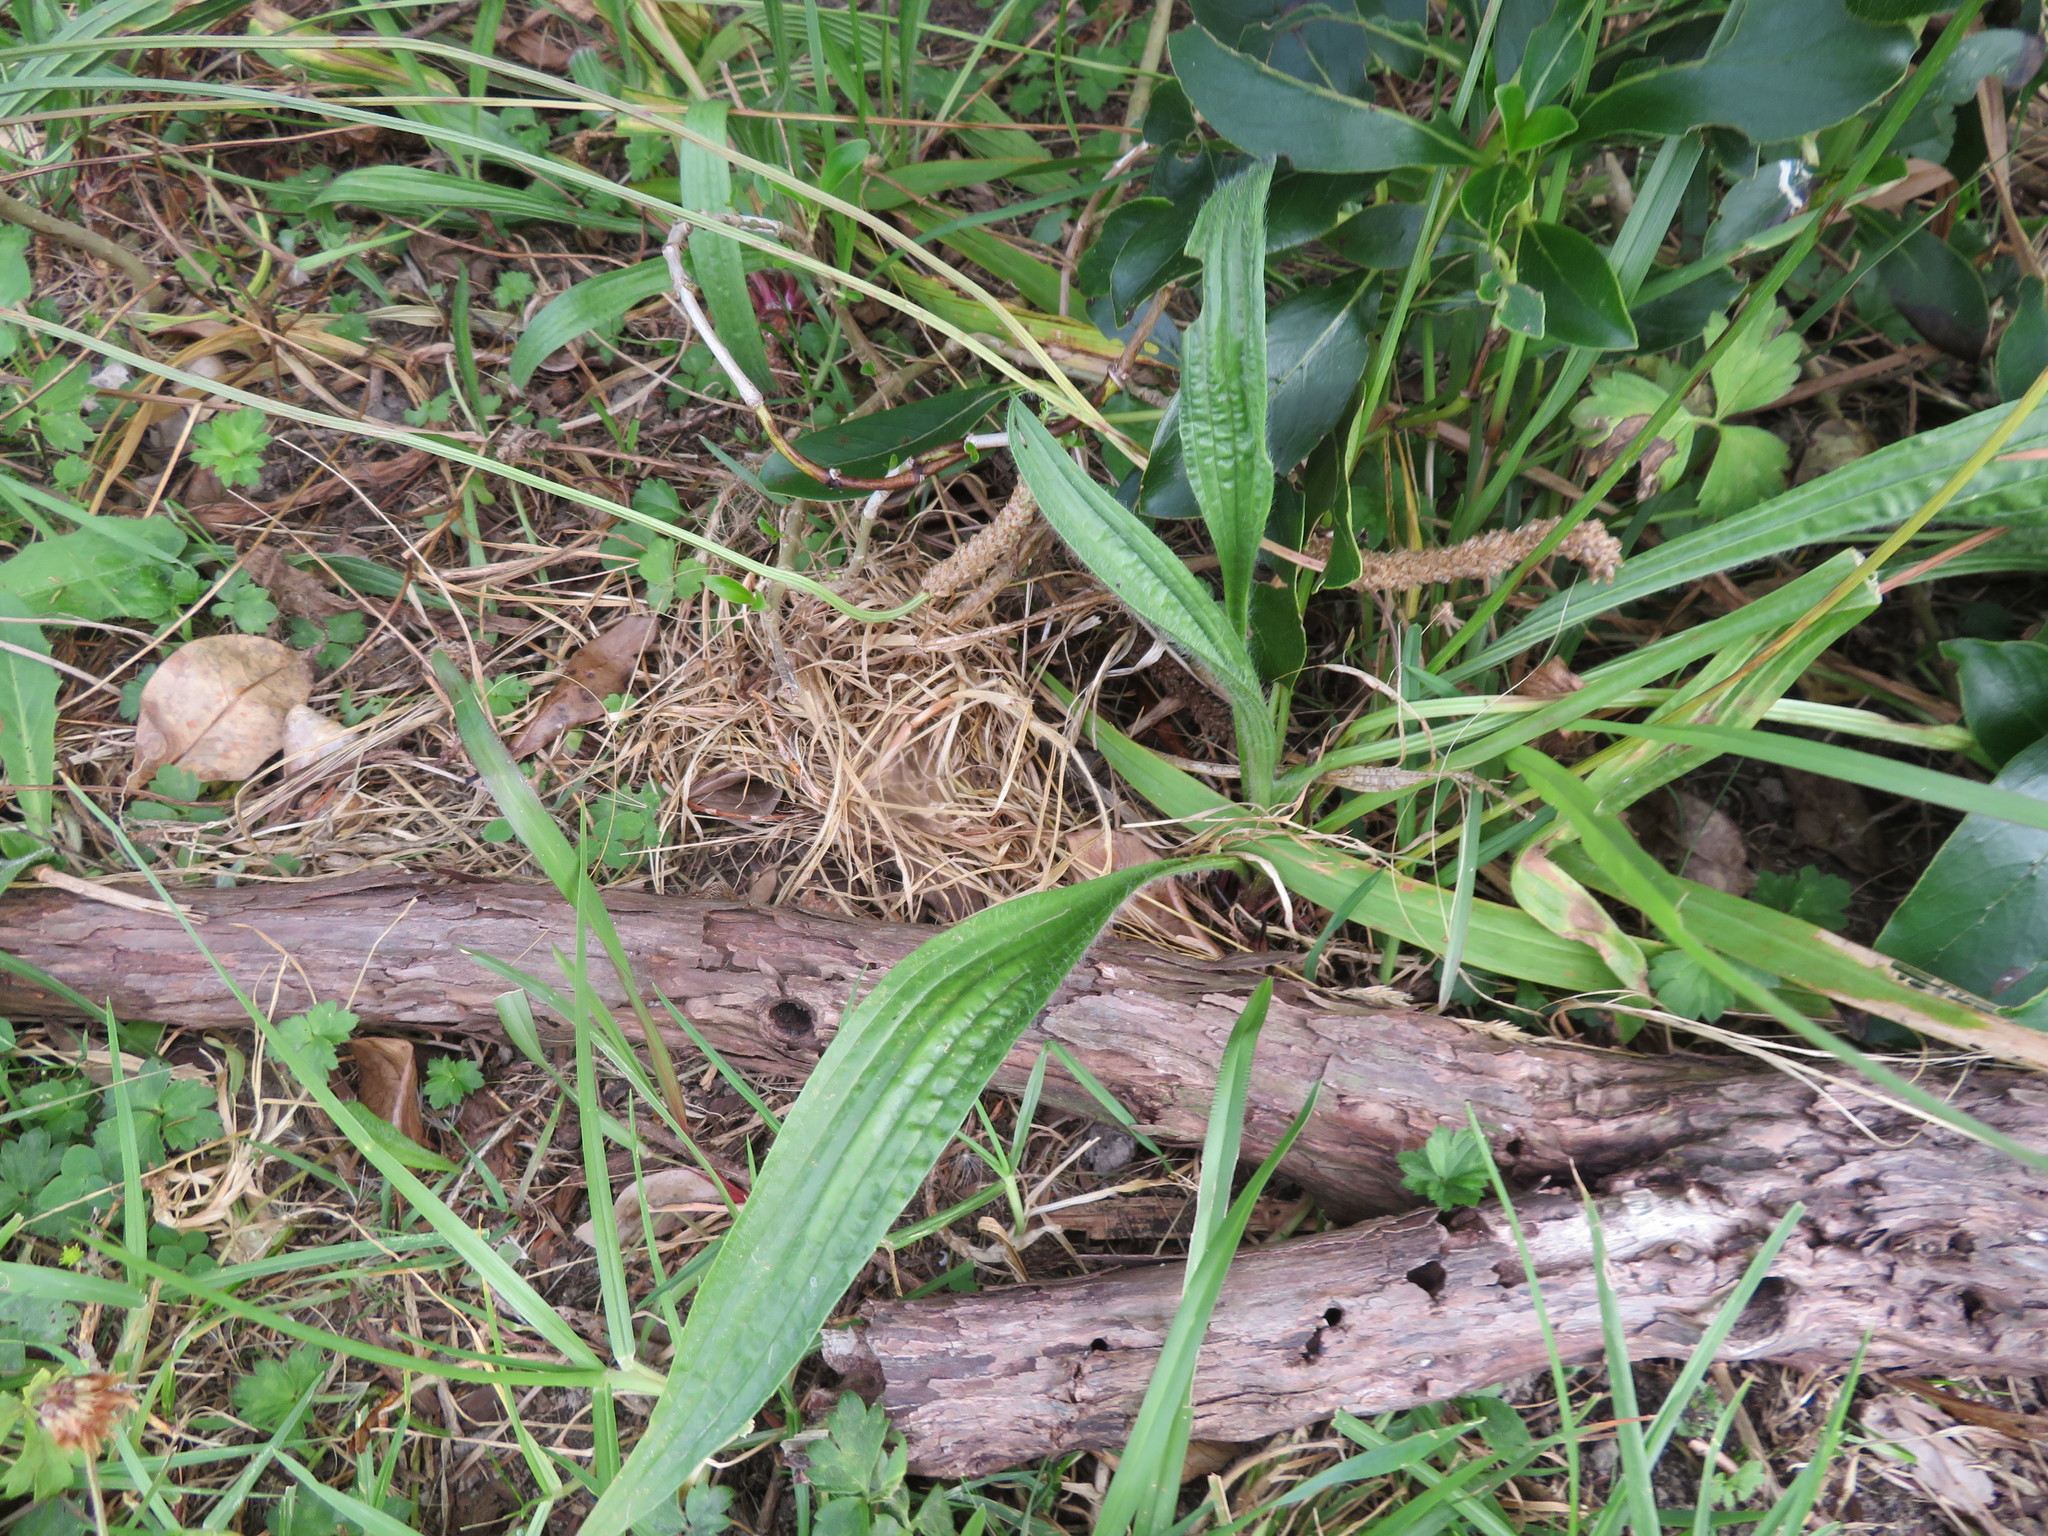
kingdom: Plantae
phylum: Tracheophyta
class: Magnoliopsida
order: Lamiales
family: Plantaginaceae
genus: Plantago
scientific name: Plantago lanceolata
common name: Ribwort plantain
